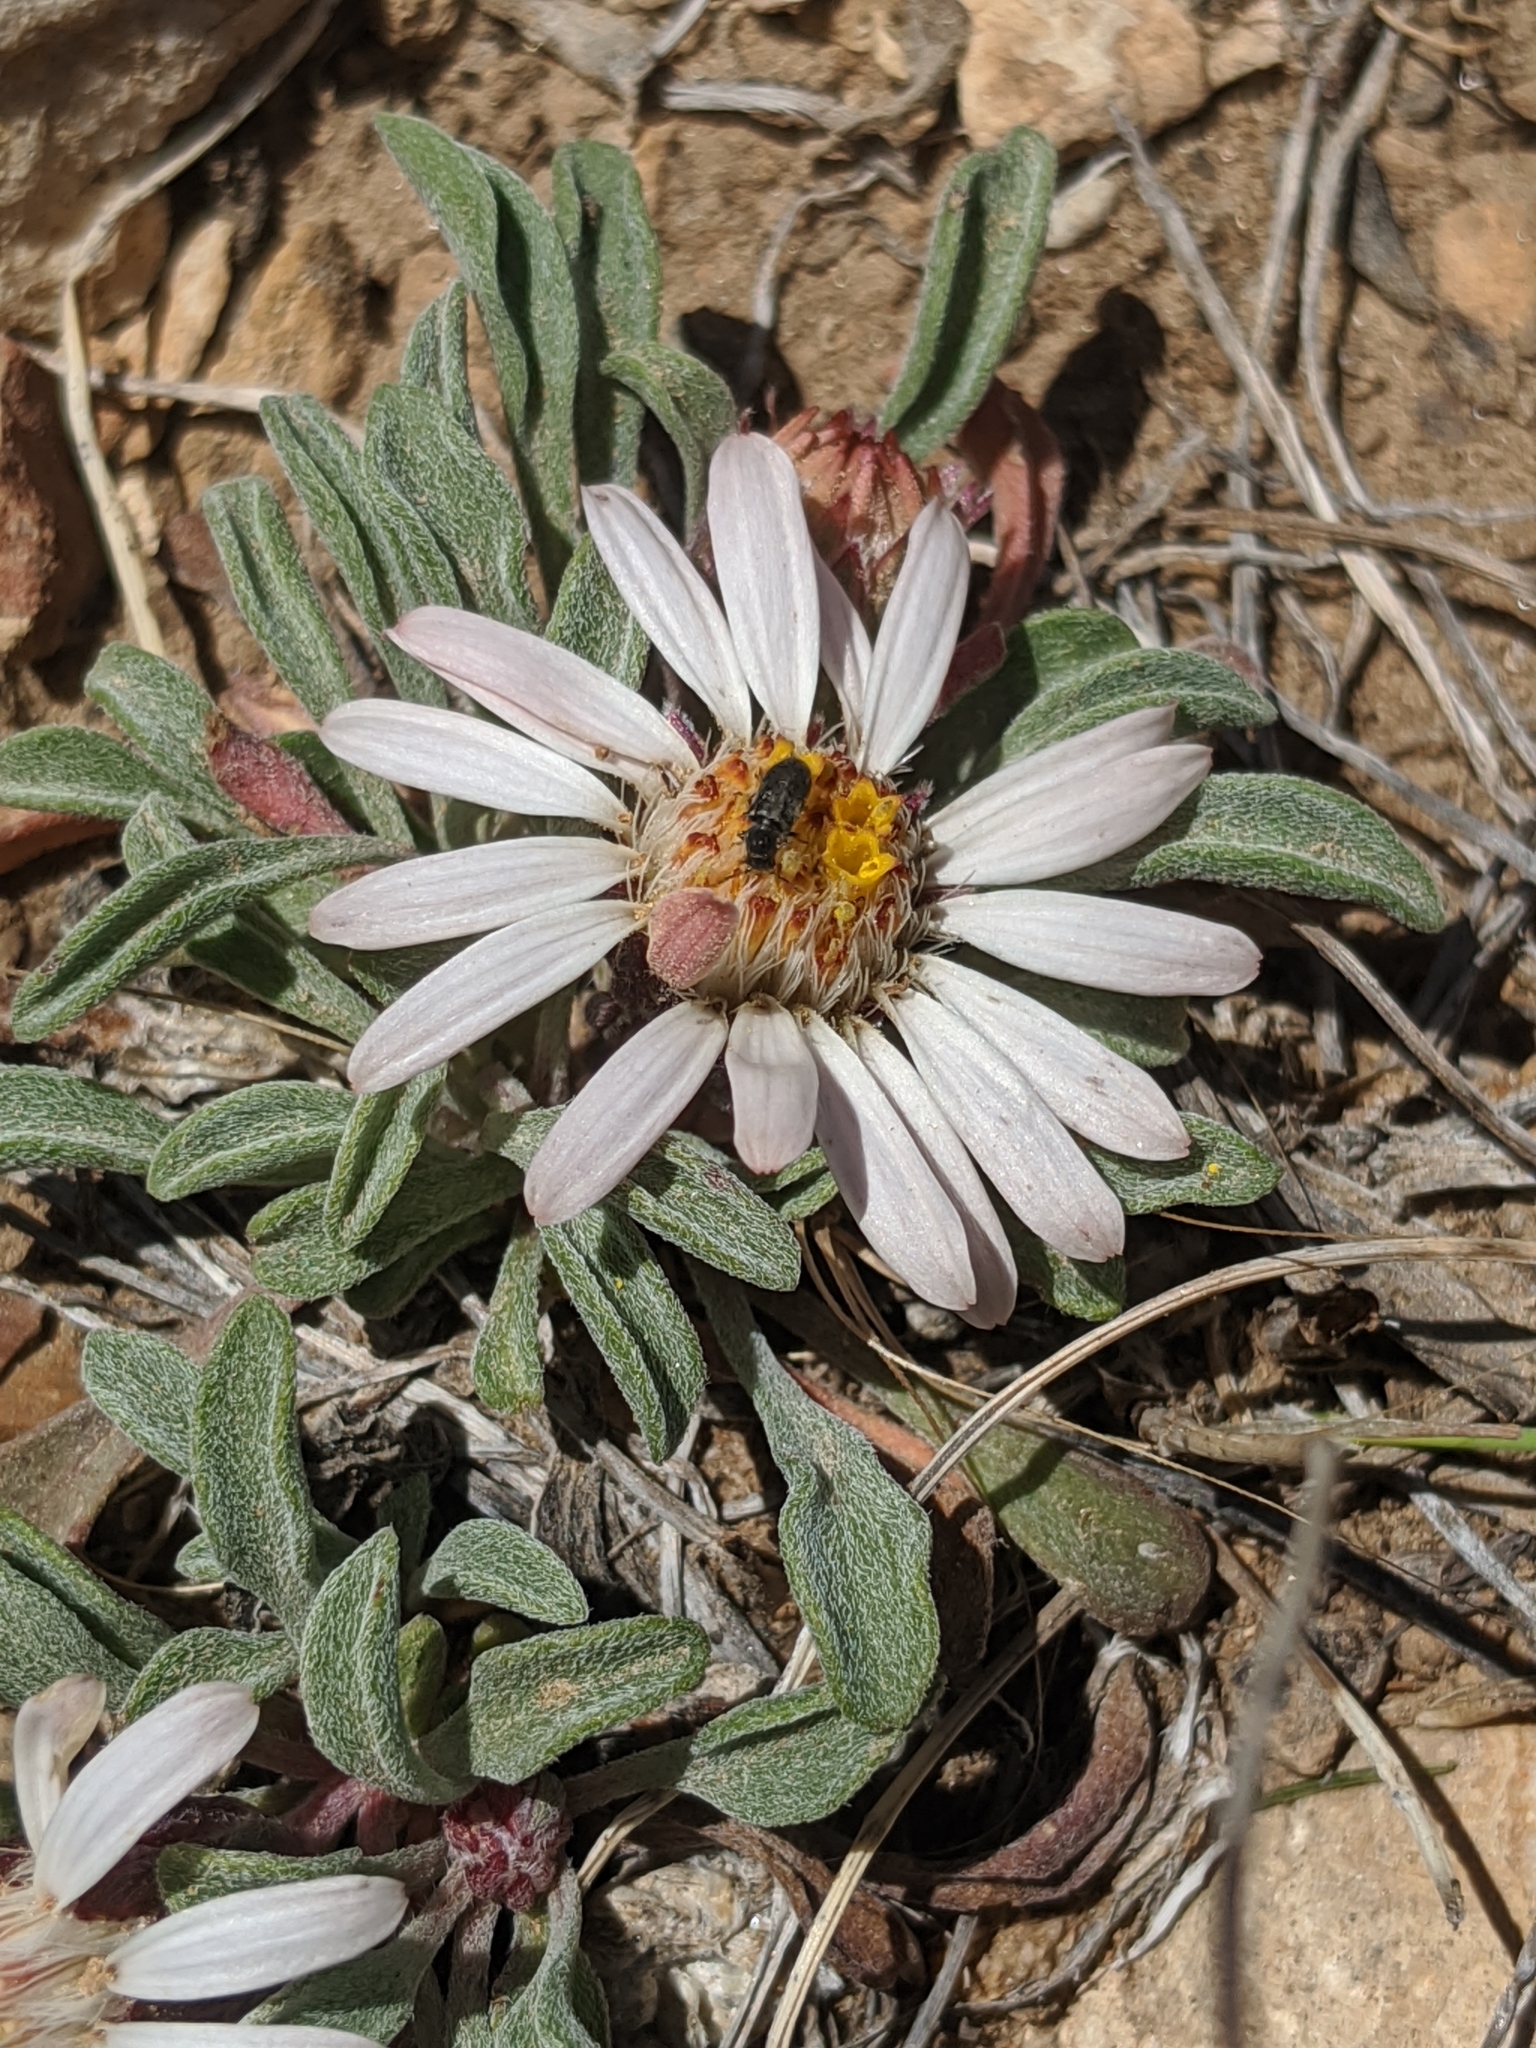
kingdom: Plantae
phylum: Tracheophyta
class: Magnoliopsida
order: Asterales
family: Asteraceae
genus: Townsendia
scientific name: Townsendia scapigera
